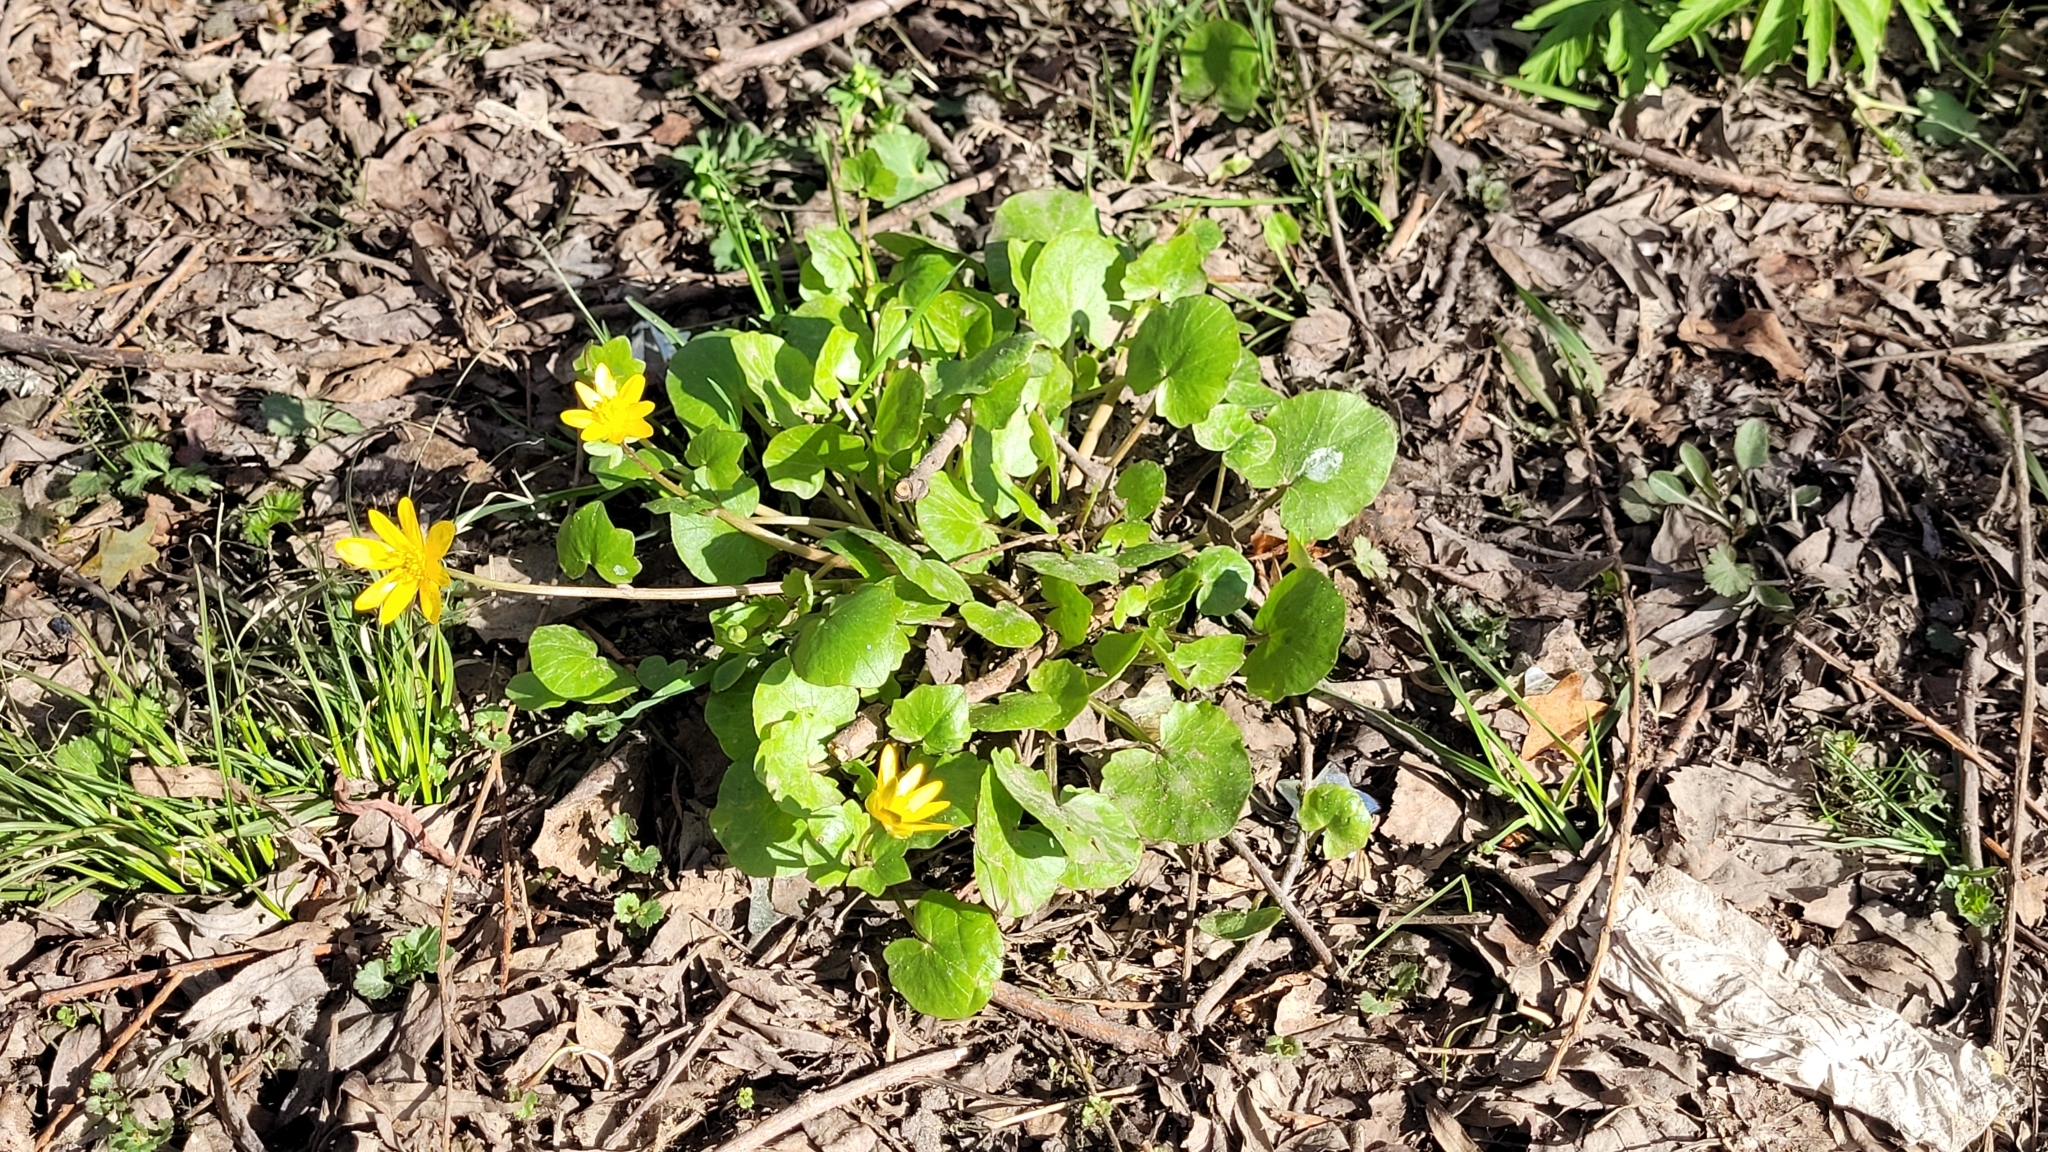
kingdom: Plantae
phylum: Tracheophyta
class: Magnoliopsida
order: Ranunculales
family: Ranunculaceae
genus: Ficaria
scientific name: Ficaria verna
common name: Lesser celandine
